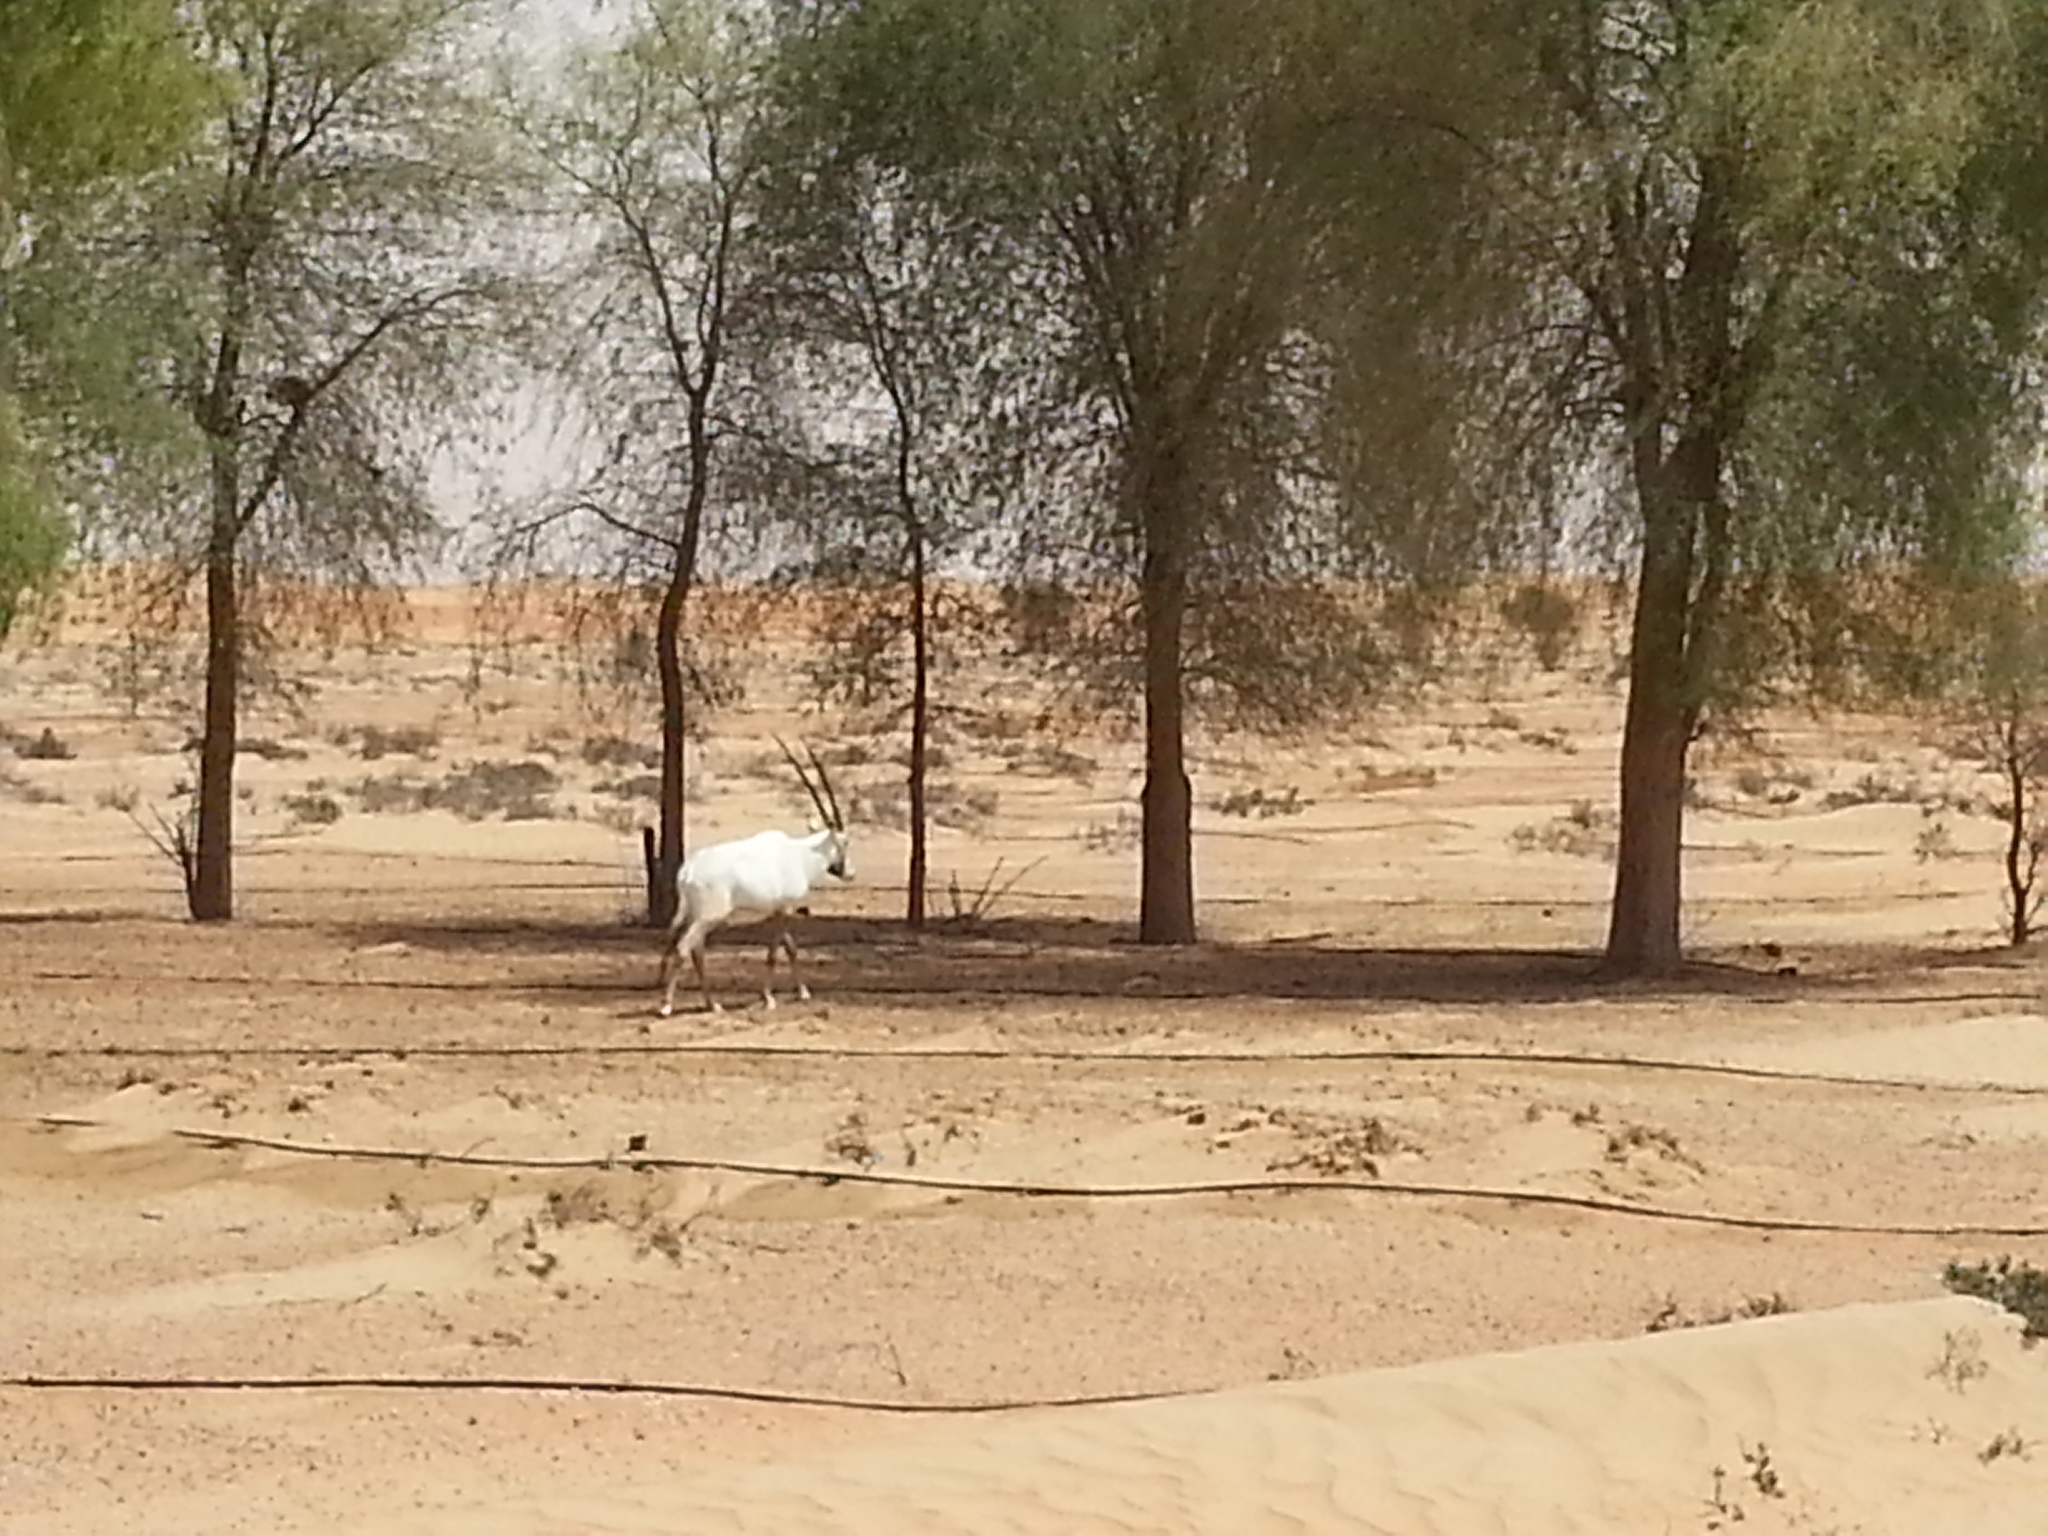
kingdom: Animalia
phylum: Chordata
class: Mammalia
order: Artiodactyla
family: Bovidae
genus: Oryx
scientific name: Oryx leucoryx
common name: Arabian oryx
